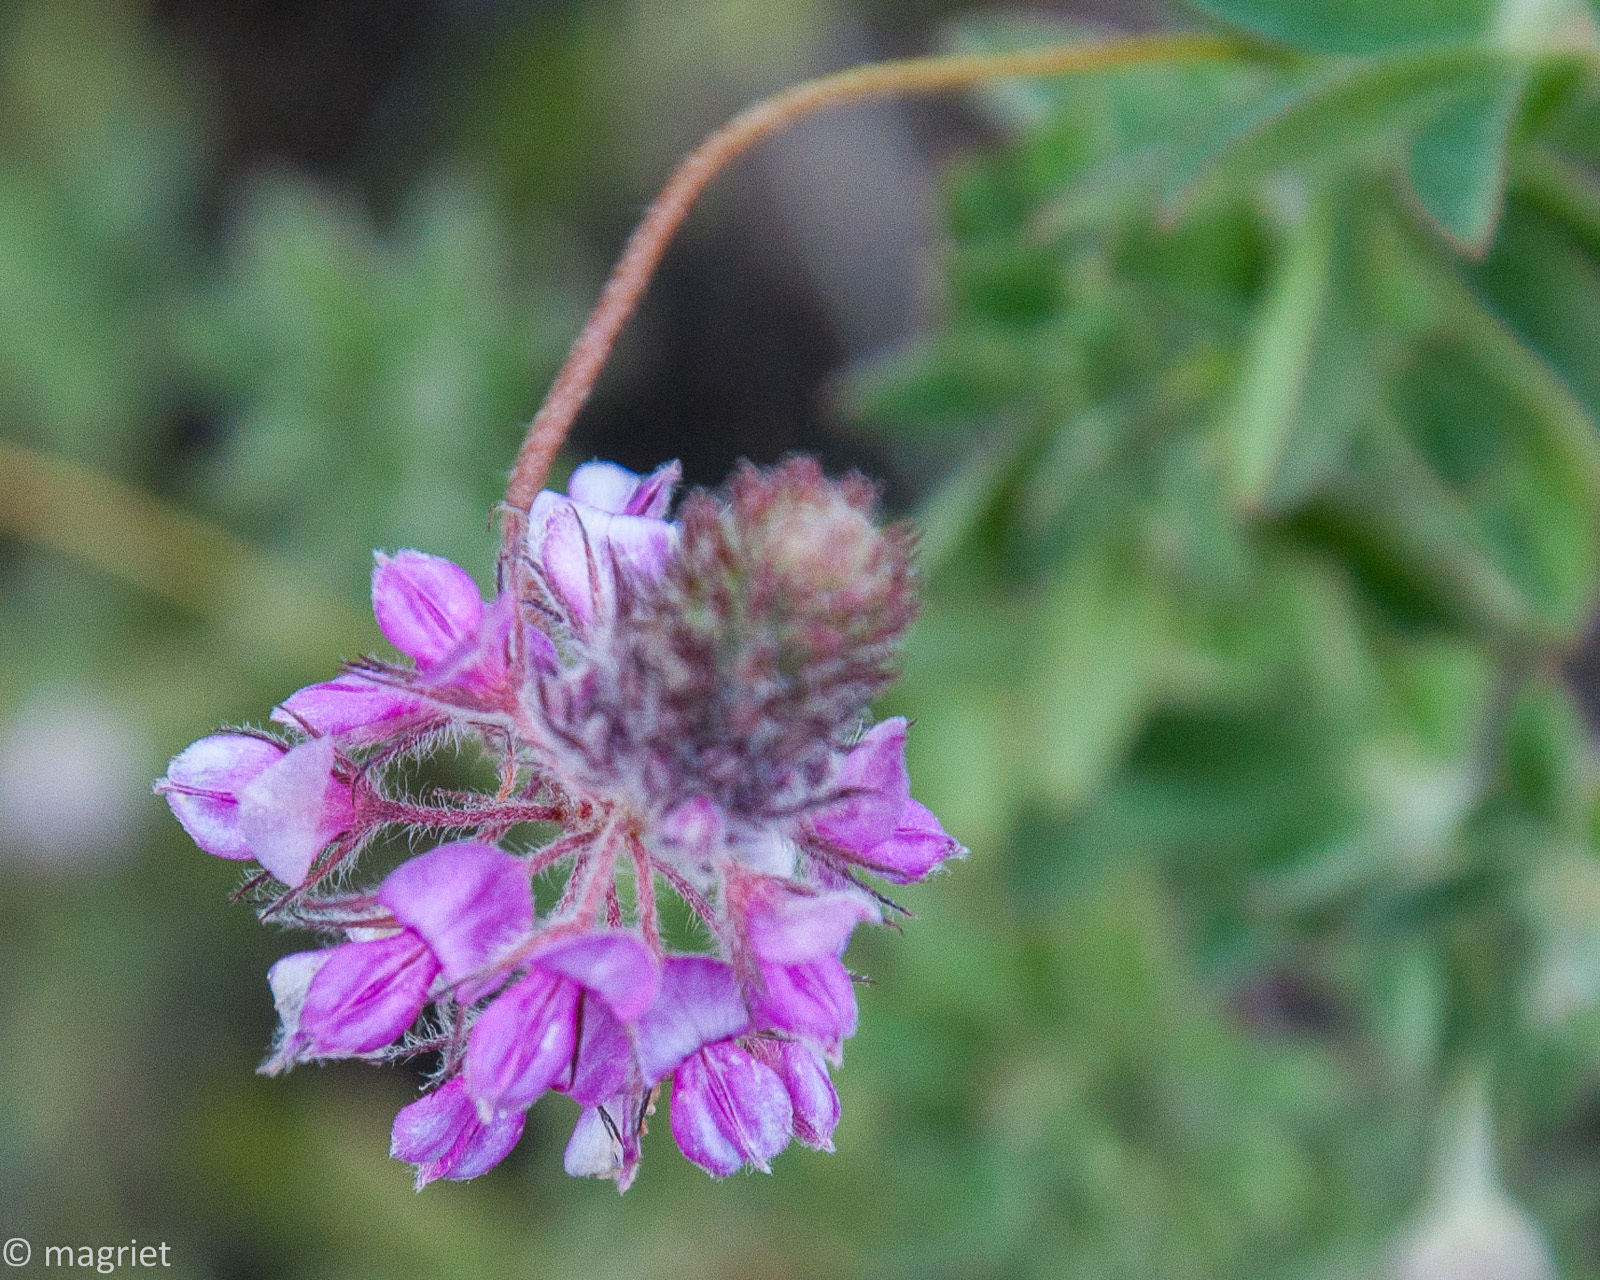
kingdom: Plantae
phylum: Tracheophyta
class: Magnoliopsida
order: Fabales
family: Fabaceae
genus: Indigofera
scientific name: Indigofera alopecuroides
